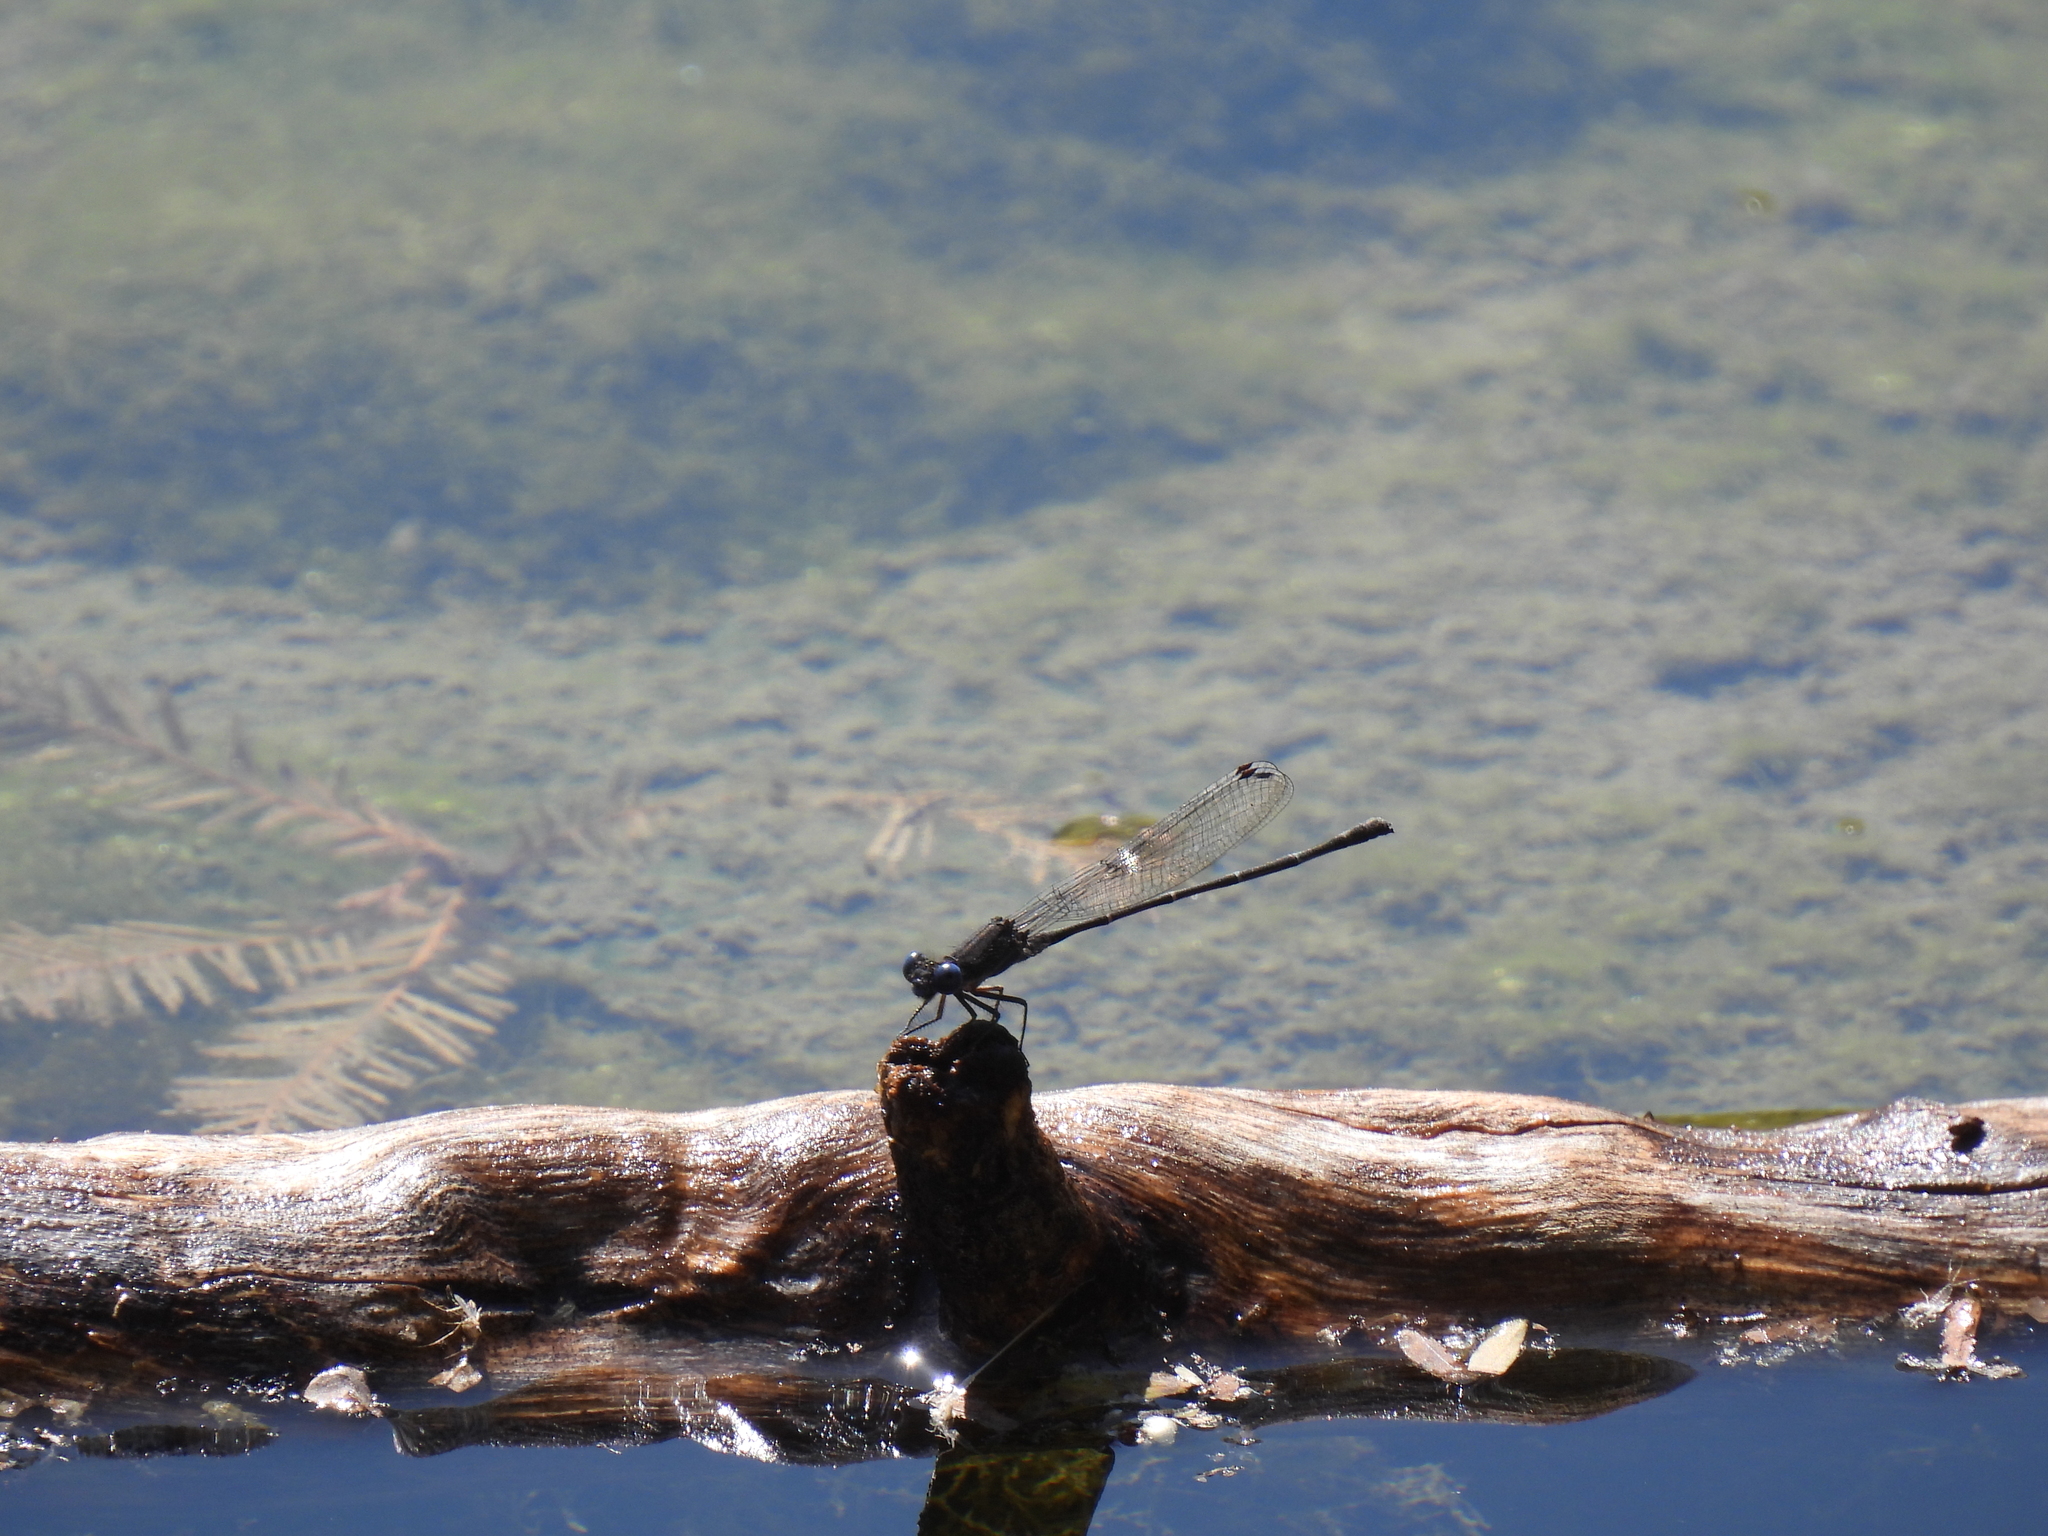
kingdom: Animalia
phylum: Arthropoda
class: Insecta
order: Odonata
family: Coenagrionidae
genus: Argia
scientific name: Argia translata
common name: Dusky dancer
